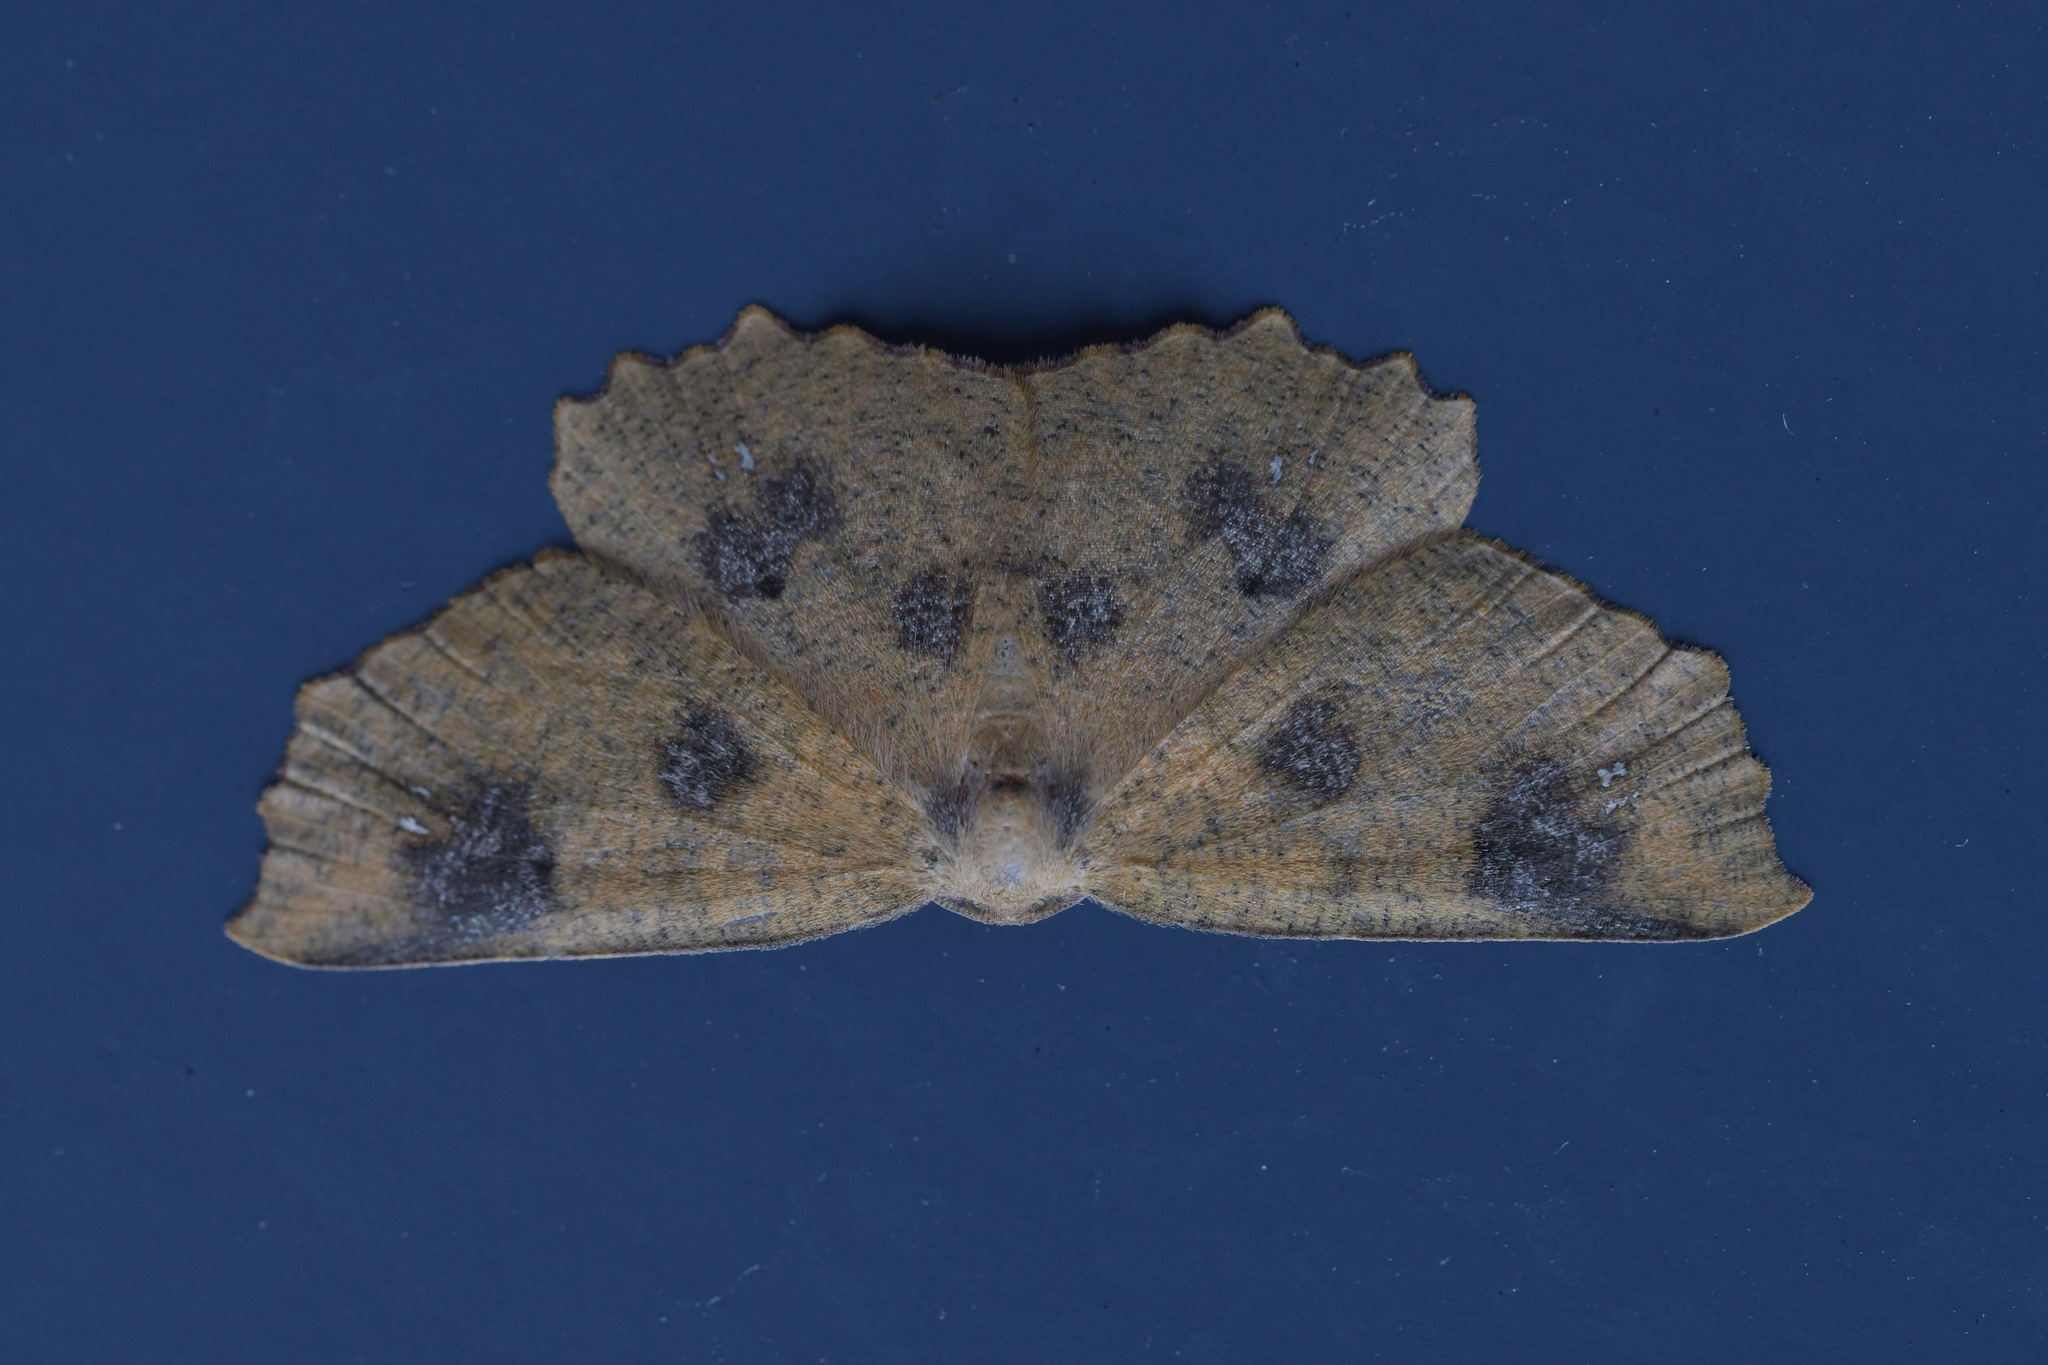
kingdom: Animalia
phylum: Arthropoda
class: Insecta
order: Lepidoptera
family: Geometridae
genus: Xyridacma
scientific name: Xyridacma ustaria
